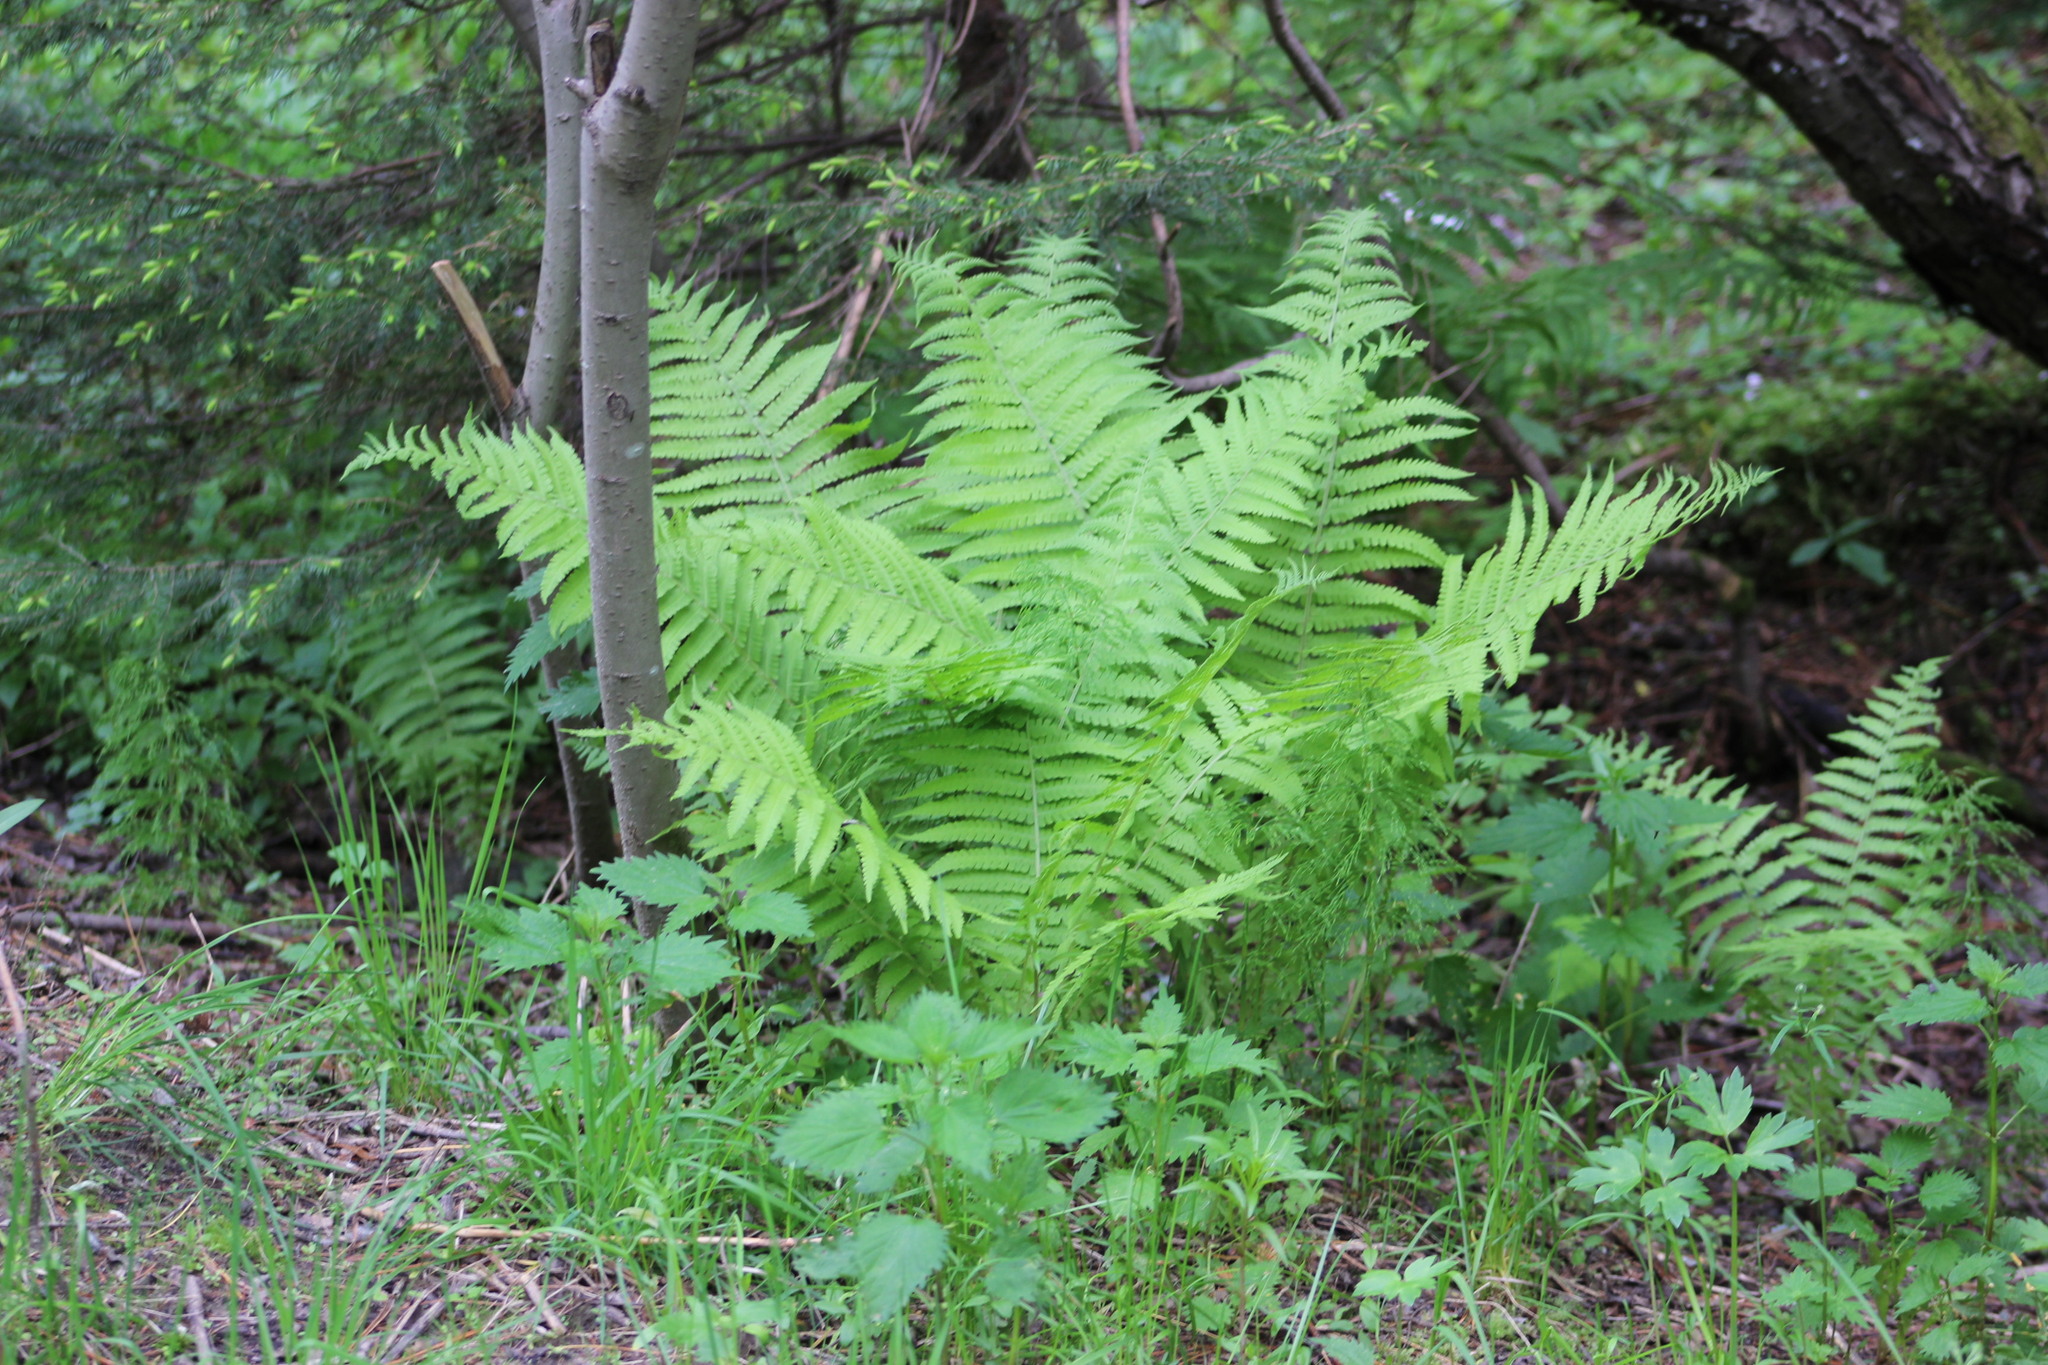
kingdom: Plantae
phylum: Tracheophyta
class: Polypodiopsida
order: Polypodiales
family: Onocleaceae
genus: Matteuccia
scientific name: Matteuccia struthiopteris
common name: Ostrich fern
